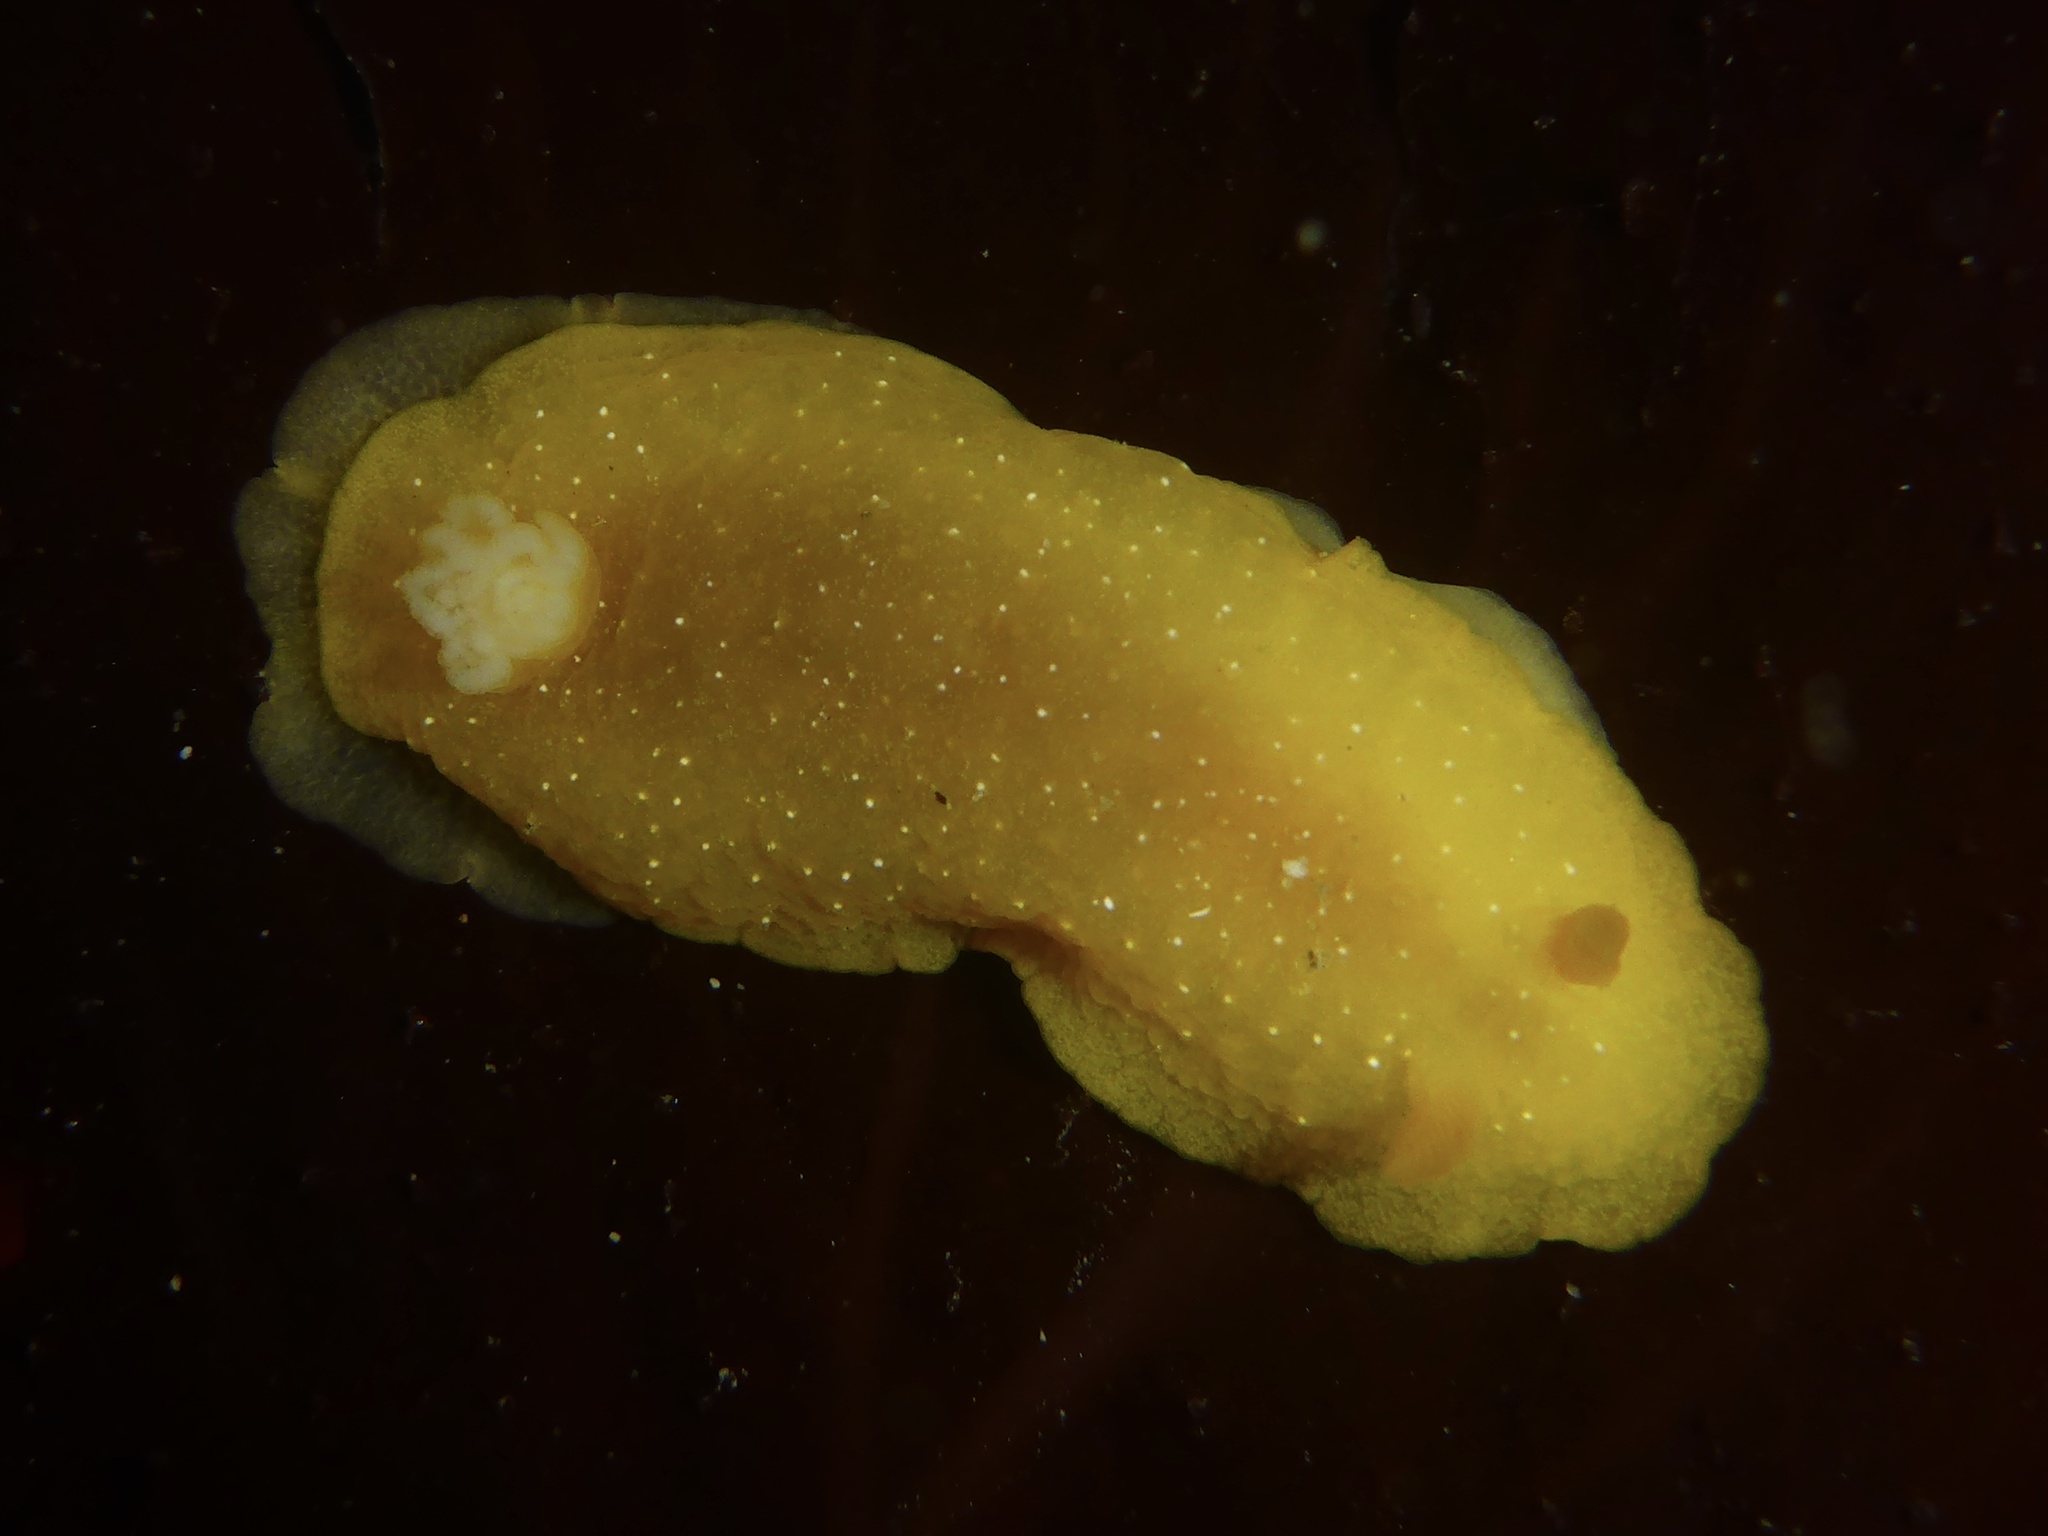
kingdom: Animalia
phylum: Mollusca
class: Gastropoda
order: Nudibranchia
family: Dendrodorididae
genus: Doriopsilla
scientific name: Doriopsilla fulva
